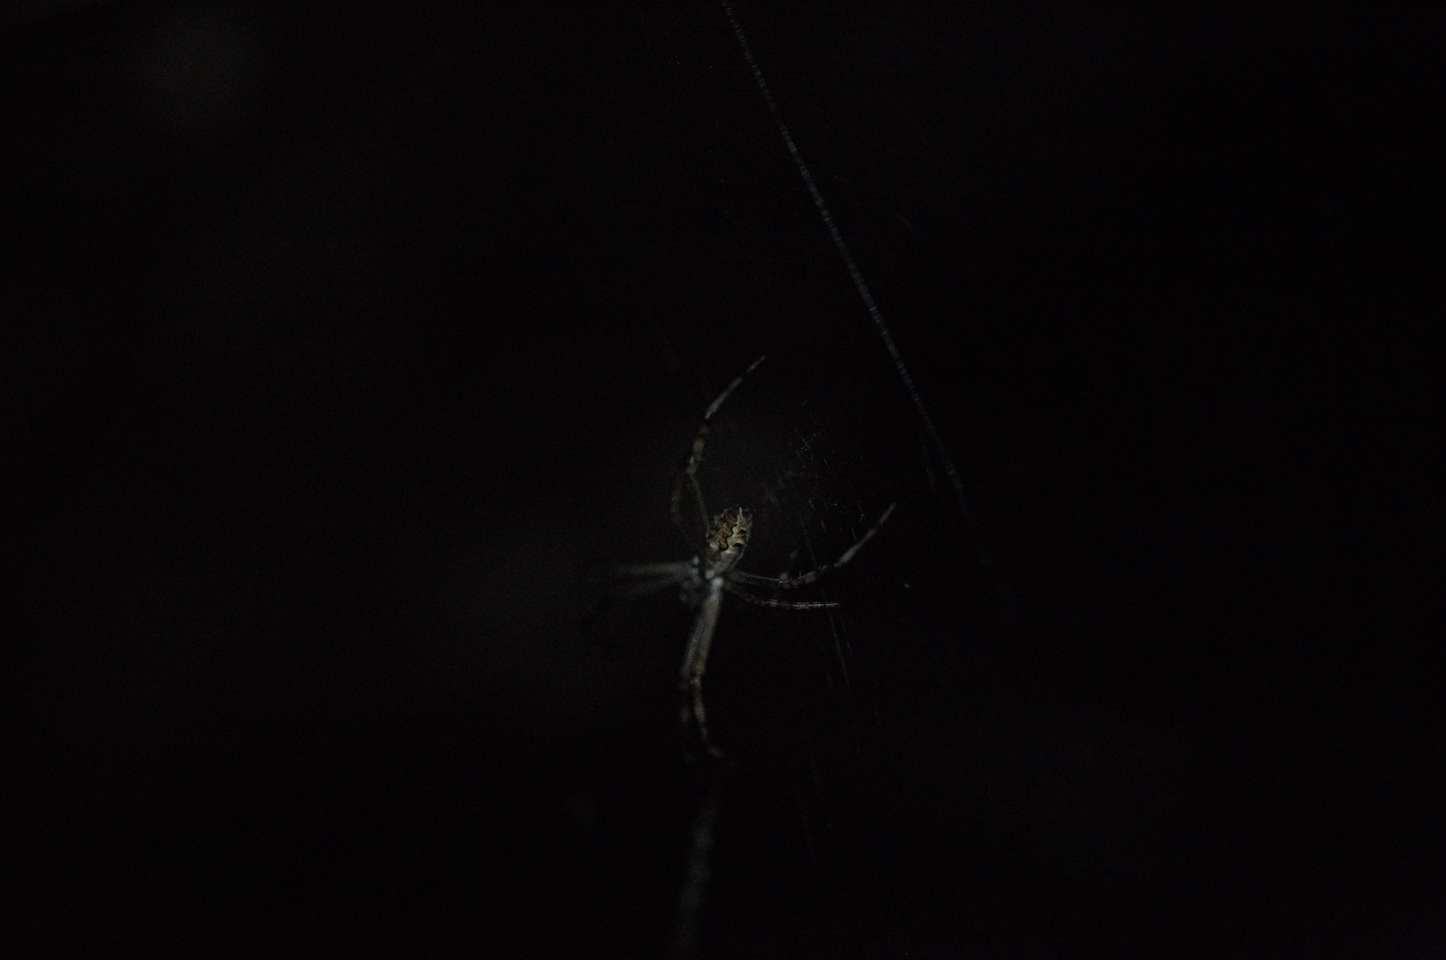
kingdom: Animalia
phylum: Arthropoda
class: Arachnida
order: Araneae
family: Araneidae
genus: Argiope
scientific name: Argiope argentata
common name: Orb weavers
